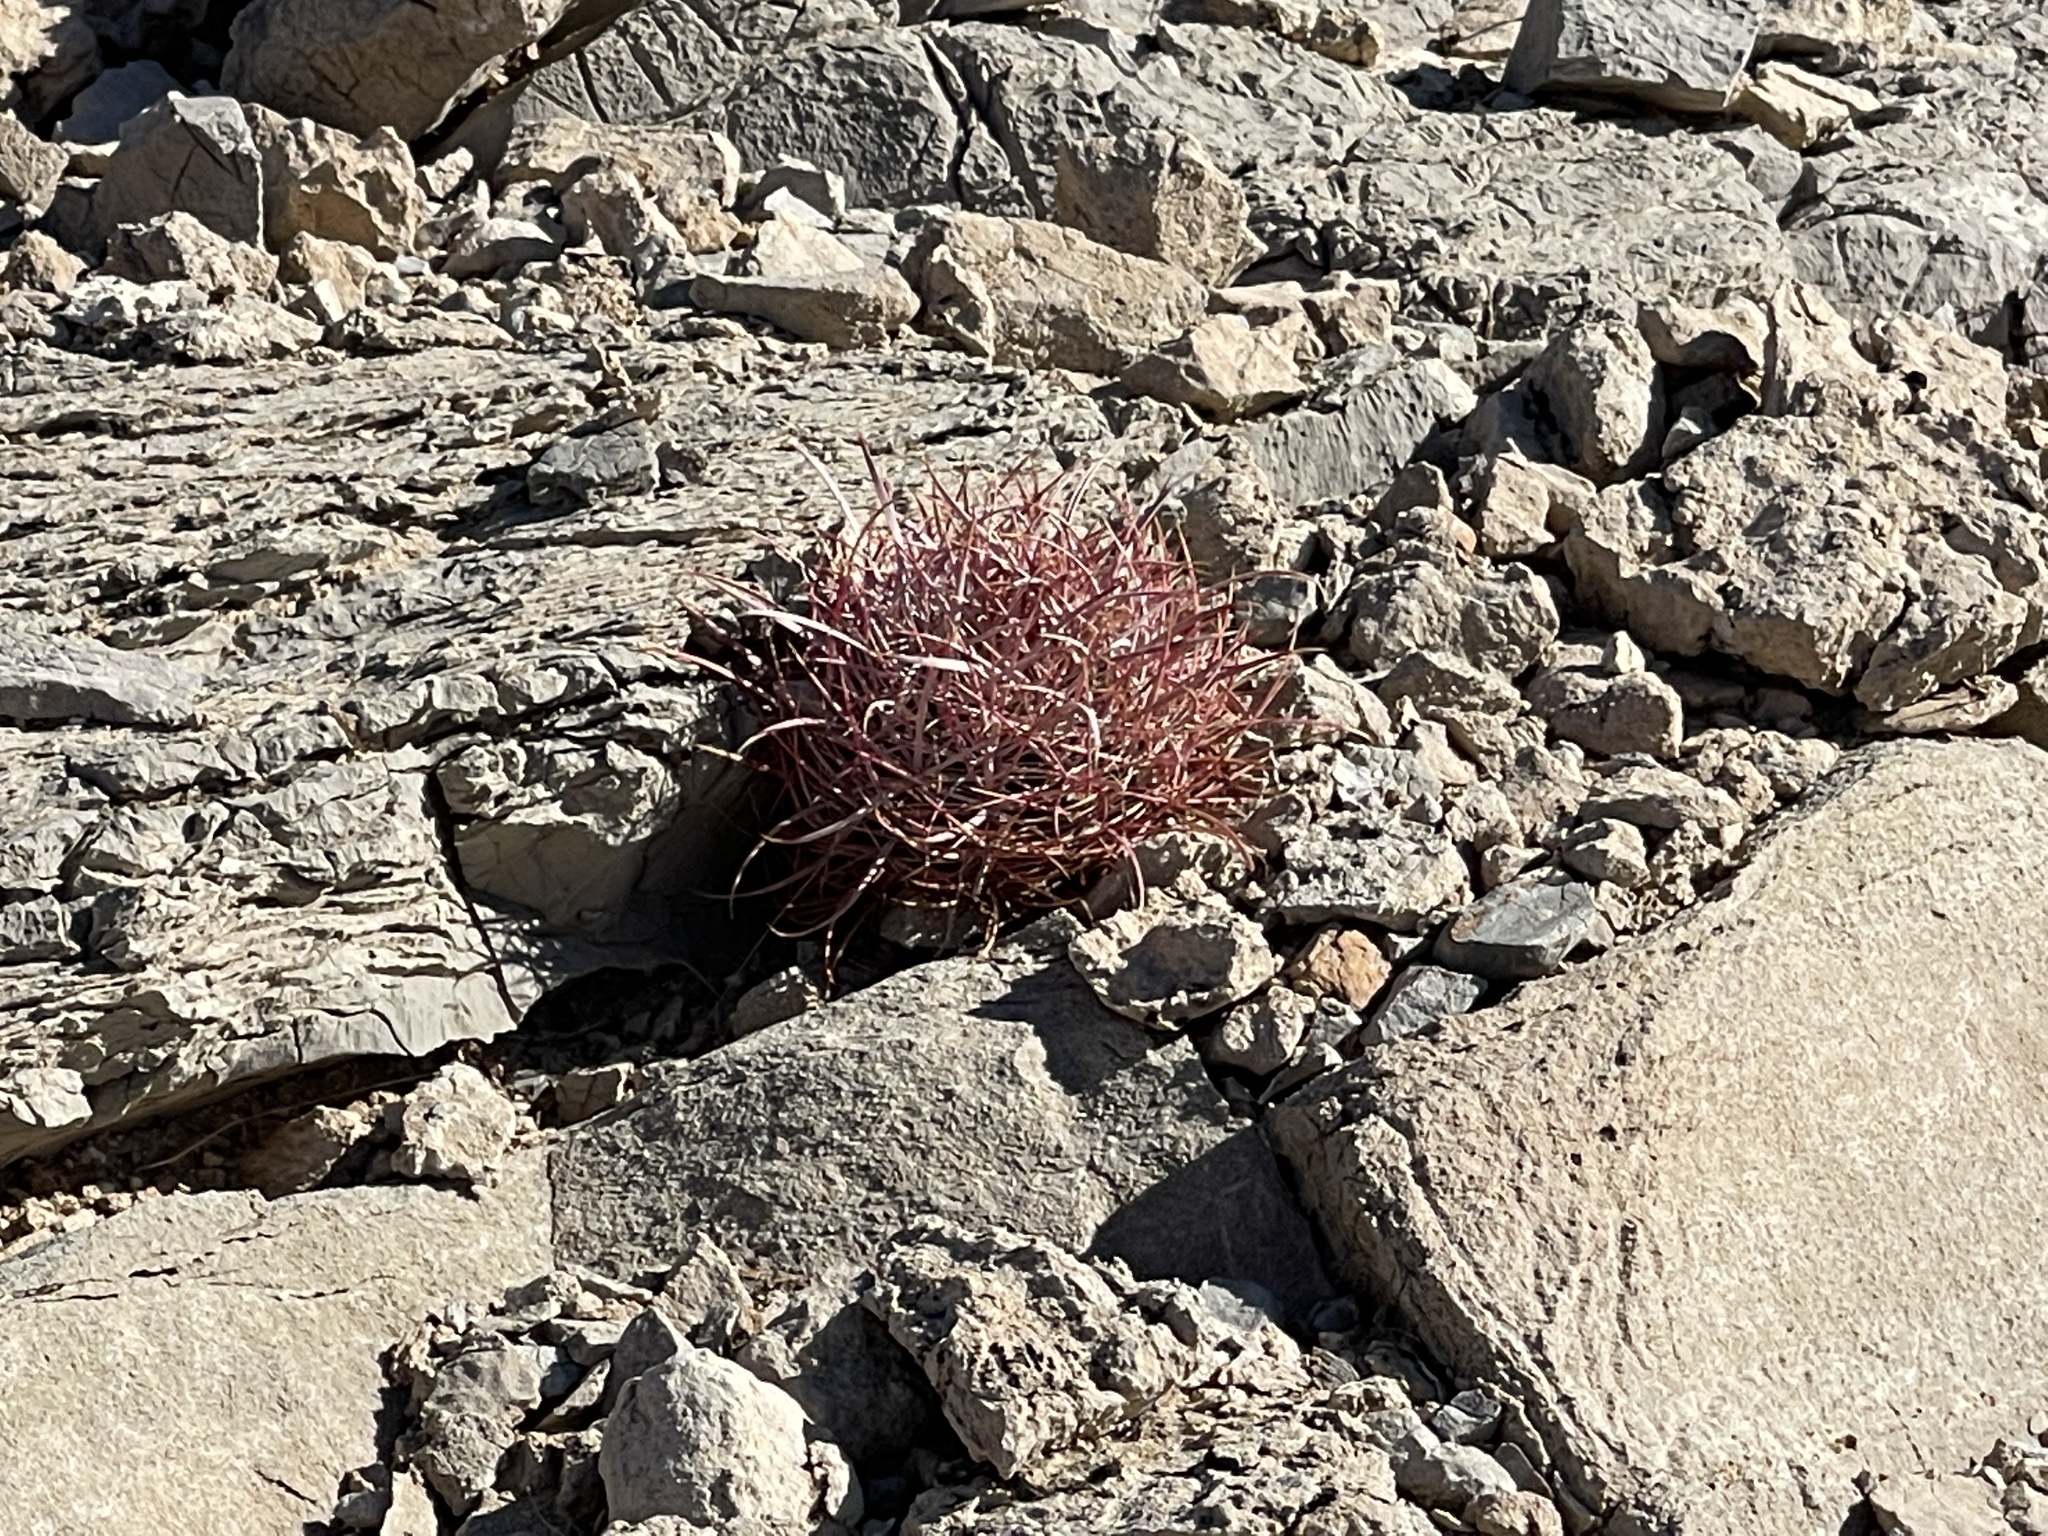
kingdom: Plantae
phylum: Tracheophyta
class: Magnoliopsida
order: Caryophyllales
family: Cactaceae
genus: Ferocactus
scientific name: Ferocactus cylindraceus
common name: California barrel cactus
